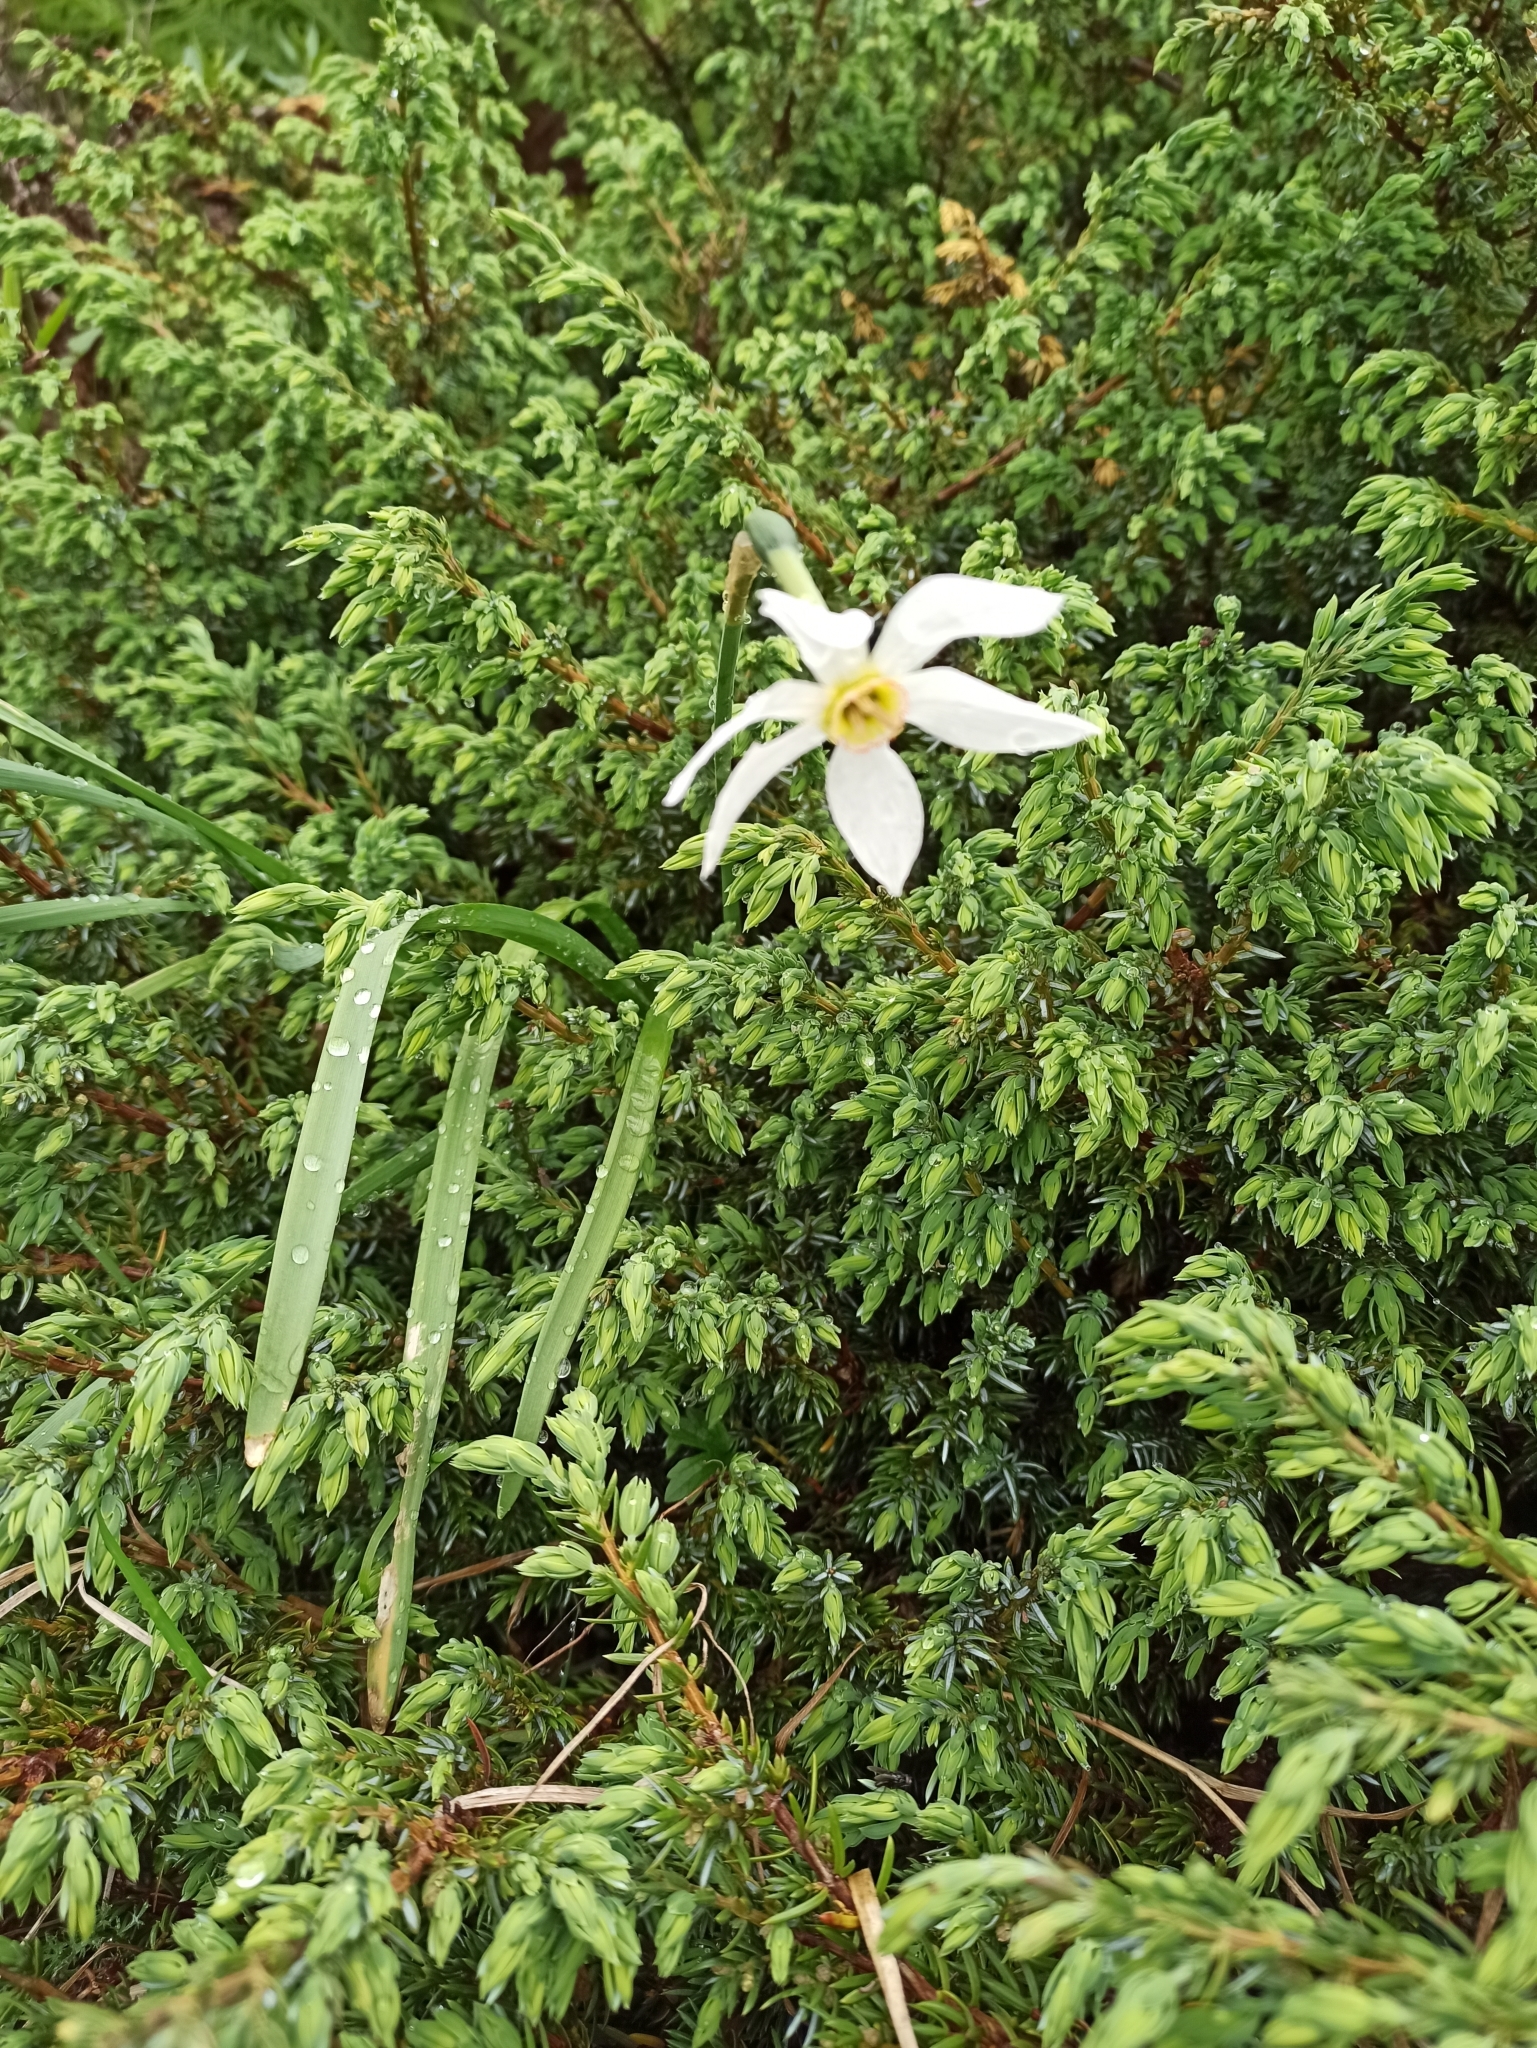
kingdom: Plantae
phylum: Tracheophyta
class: Liliopsida
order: Asparagales
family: Amaryllidaceae
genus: Narcissus
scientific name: Narcissus poeticus
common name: Pheasant's-eye daffodil
